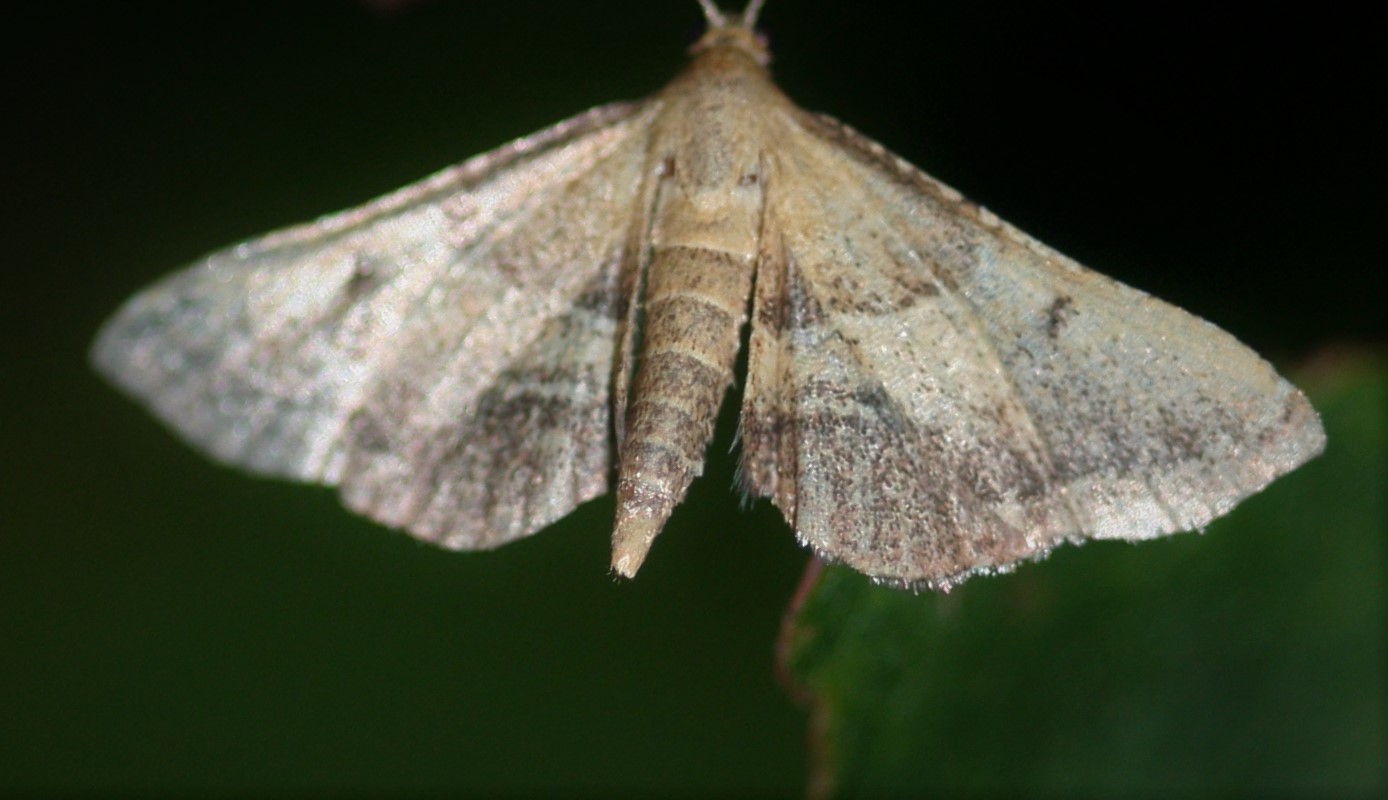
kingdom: Animalia
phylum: Arthropoda
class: Insecta
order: Lepidoptera
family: Pyralidae
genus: Endotricha
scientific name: Endotricha flammealis
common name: Rosy tabby
